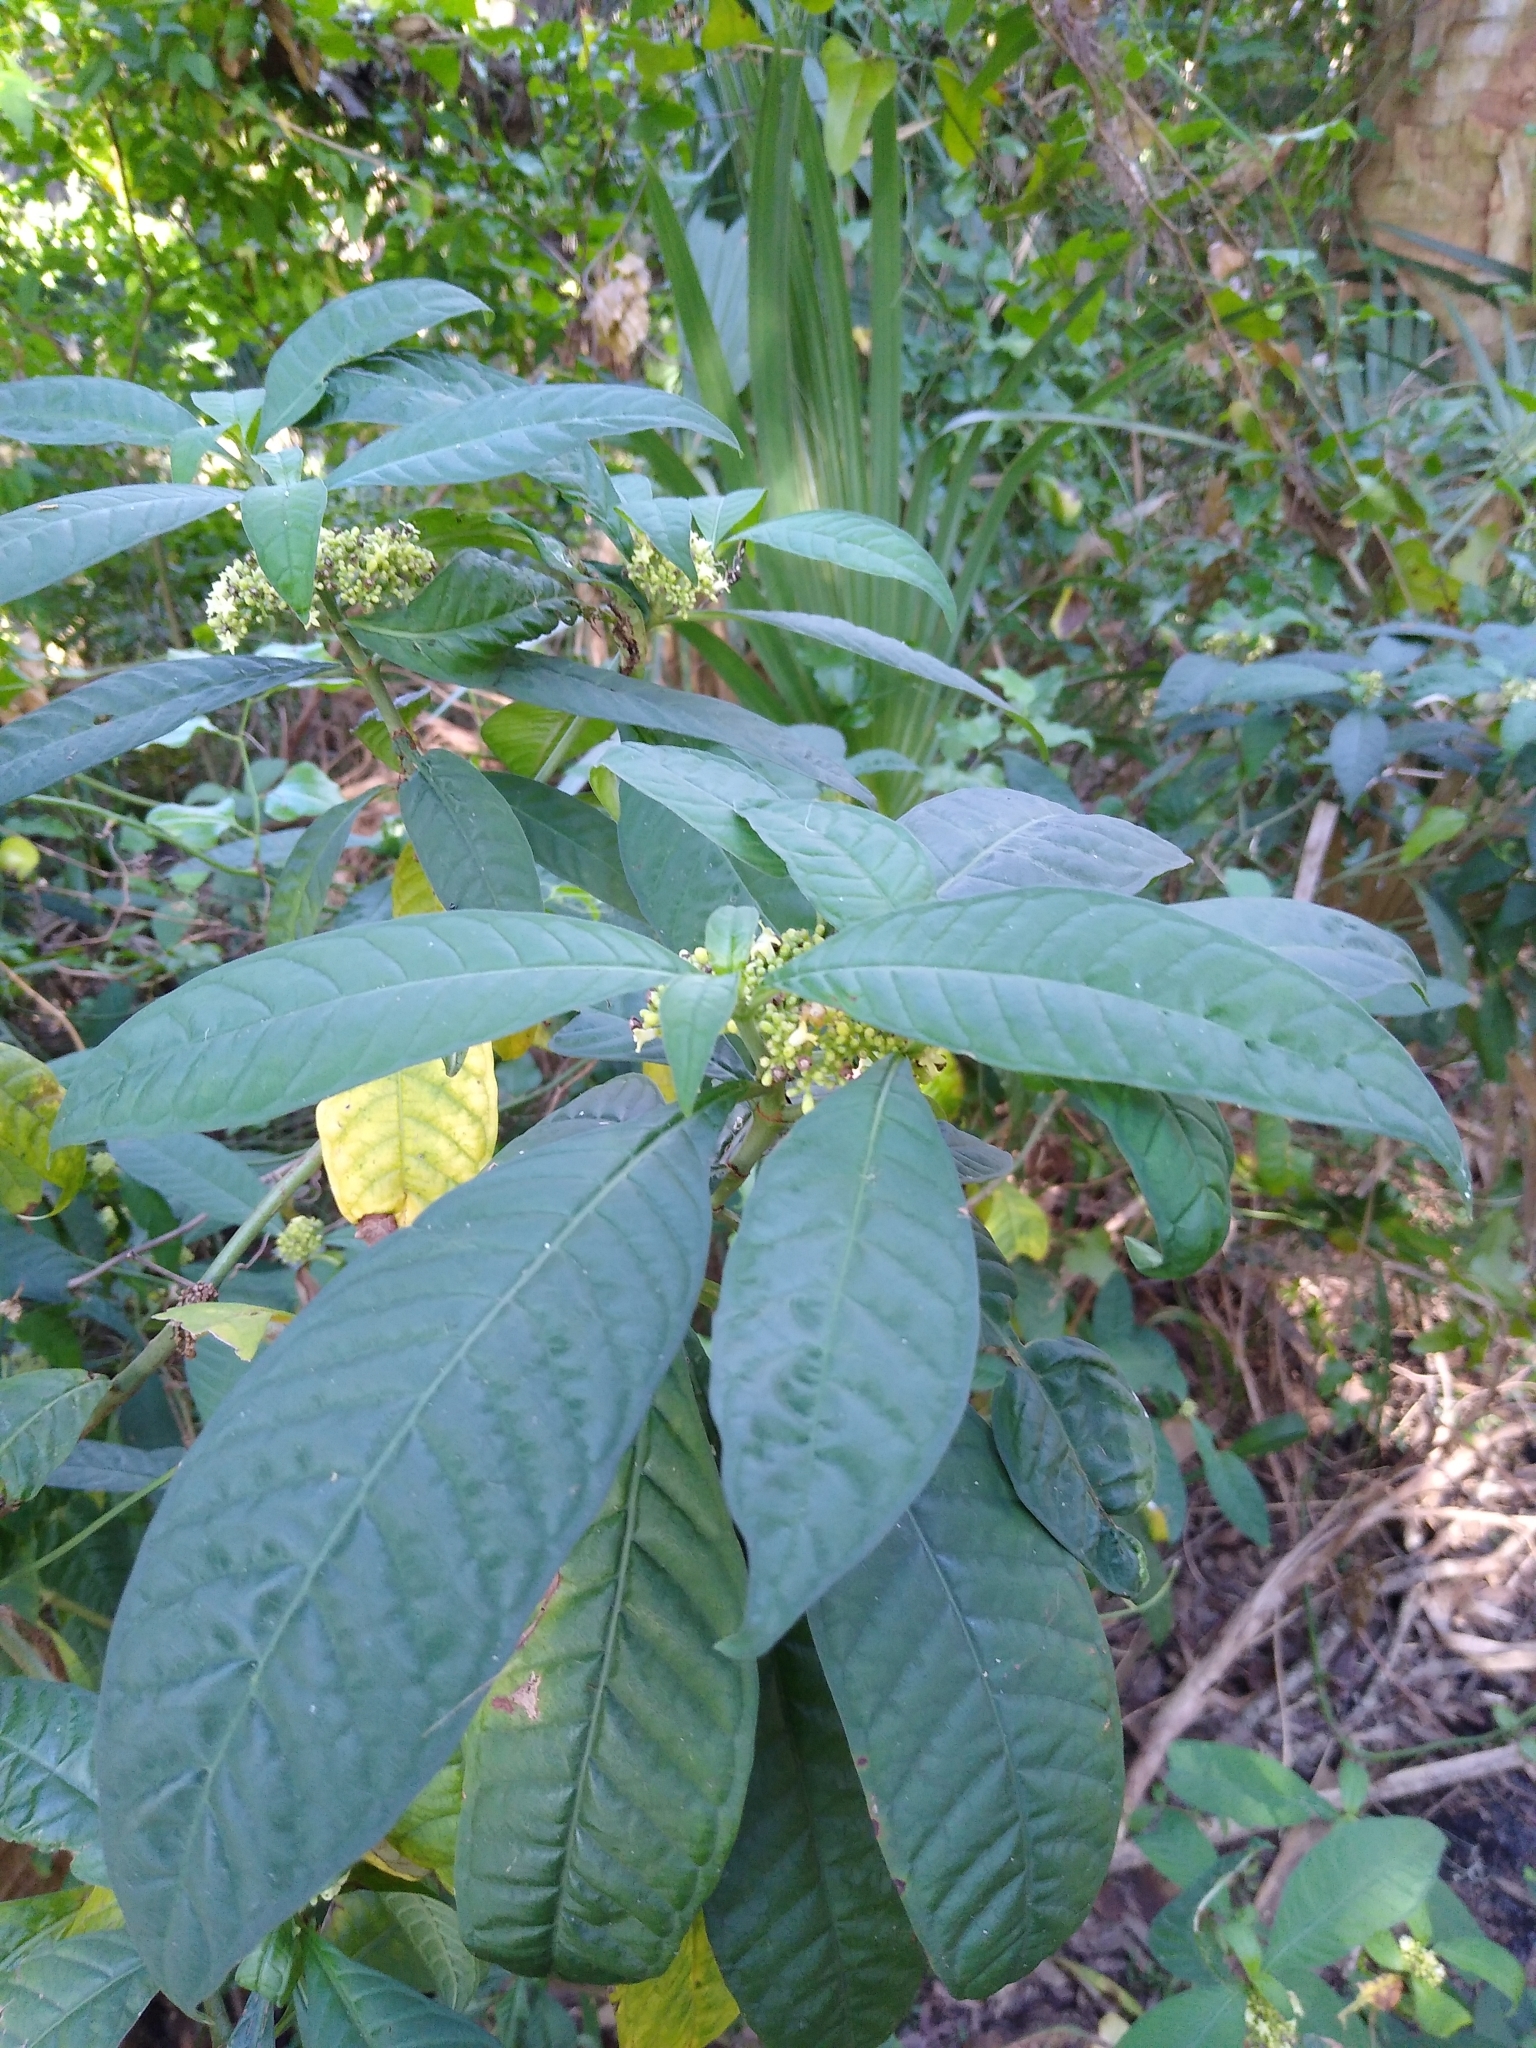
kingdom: Plantae
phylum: Tracheophyta
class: Magnoliopsida
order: Gentianales
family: Rubiaceae
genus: Psychotria
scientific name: Psychotria tenuifolia
